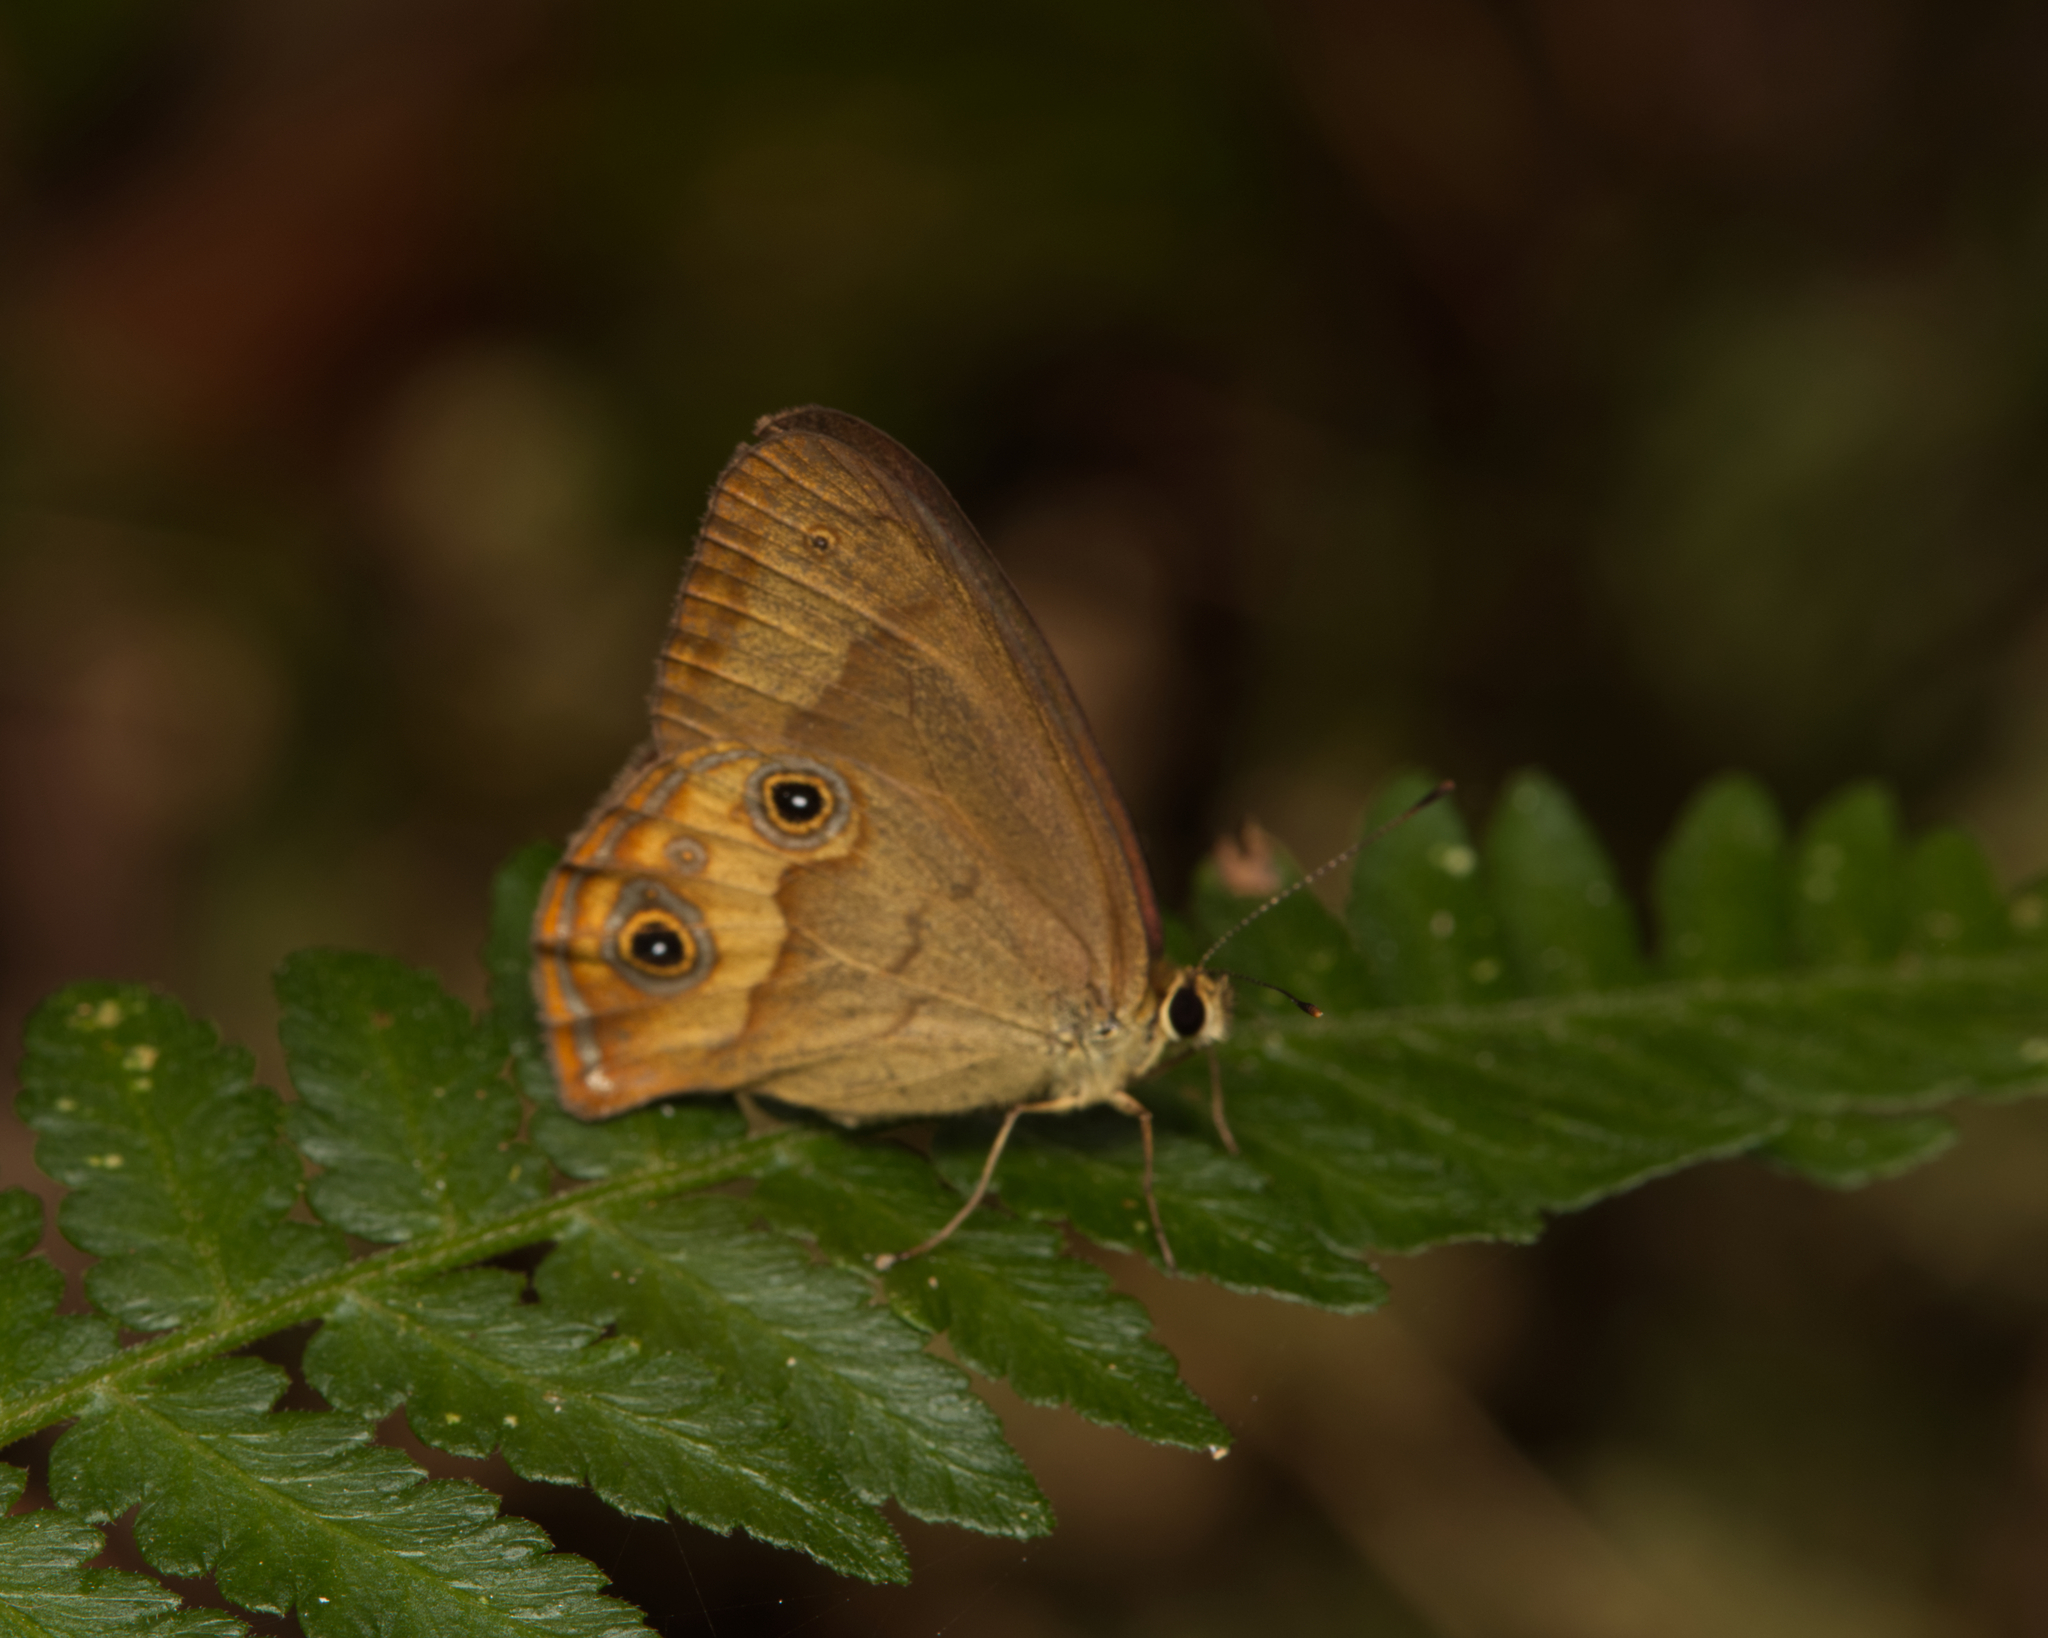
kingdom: Animalia
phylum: Arthropoda
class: Insecta
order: Lepidoptera
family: Nymphalidae
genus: Hypocysta
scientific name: Hypocysta metirius
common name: Brown ringlet
